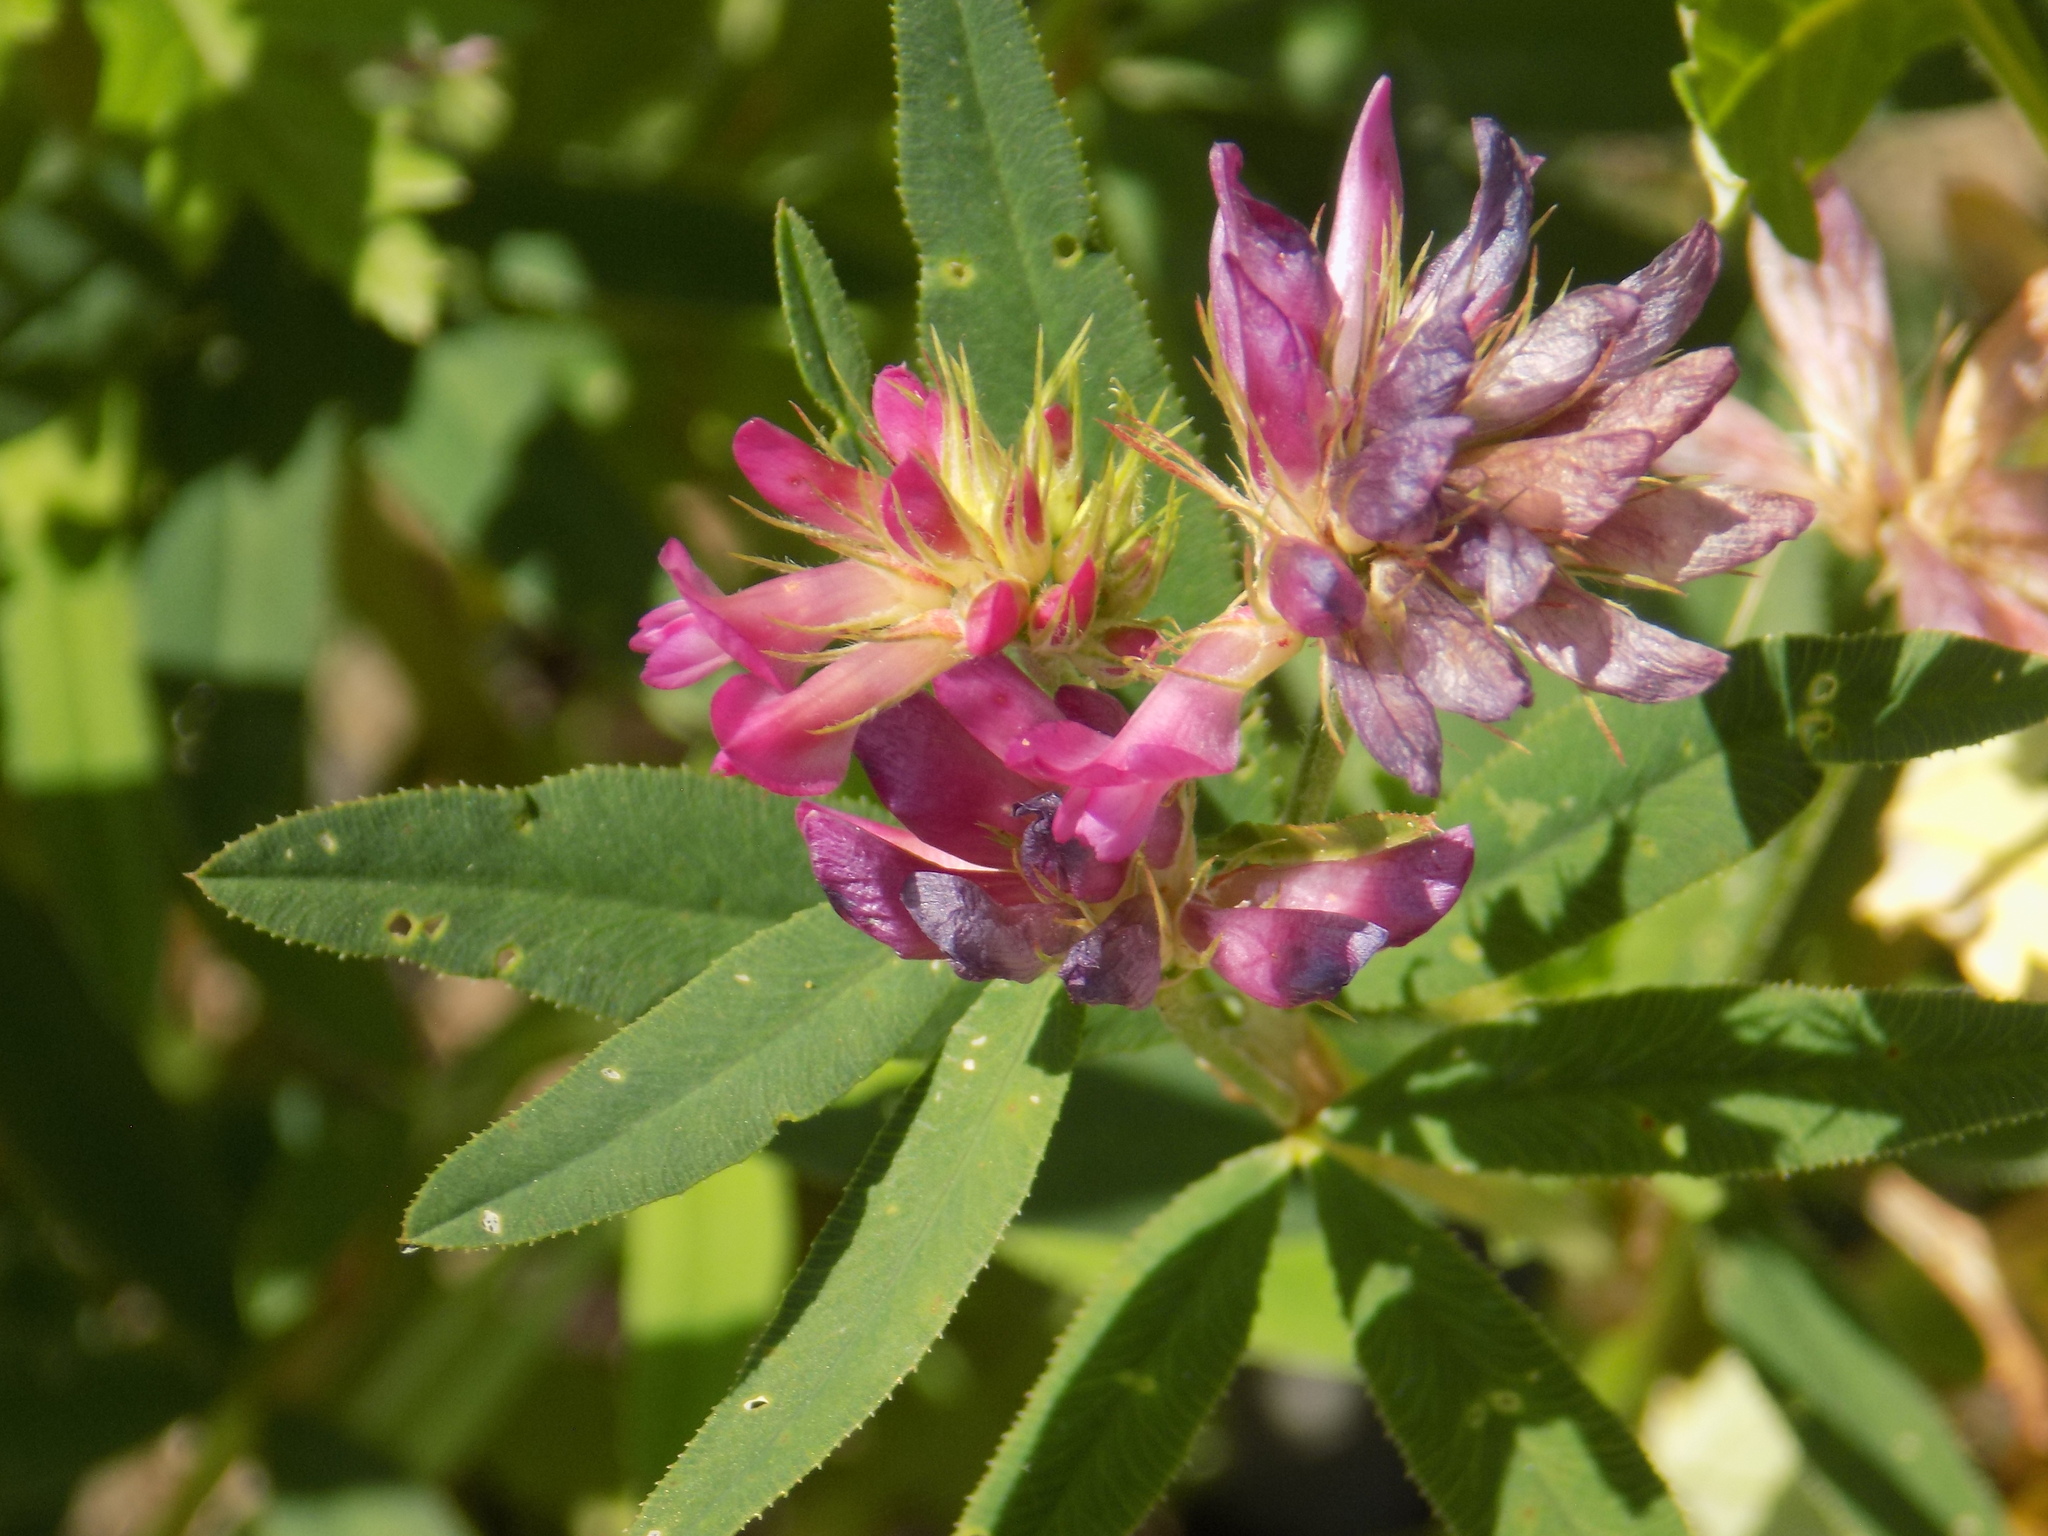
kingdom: Plantae
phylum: Tracheophyta
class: Magnoliopsida
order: Fabales
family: Fabaceae
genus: Trifolium
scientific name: Trifolium lupinaster
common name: Lupine clover
